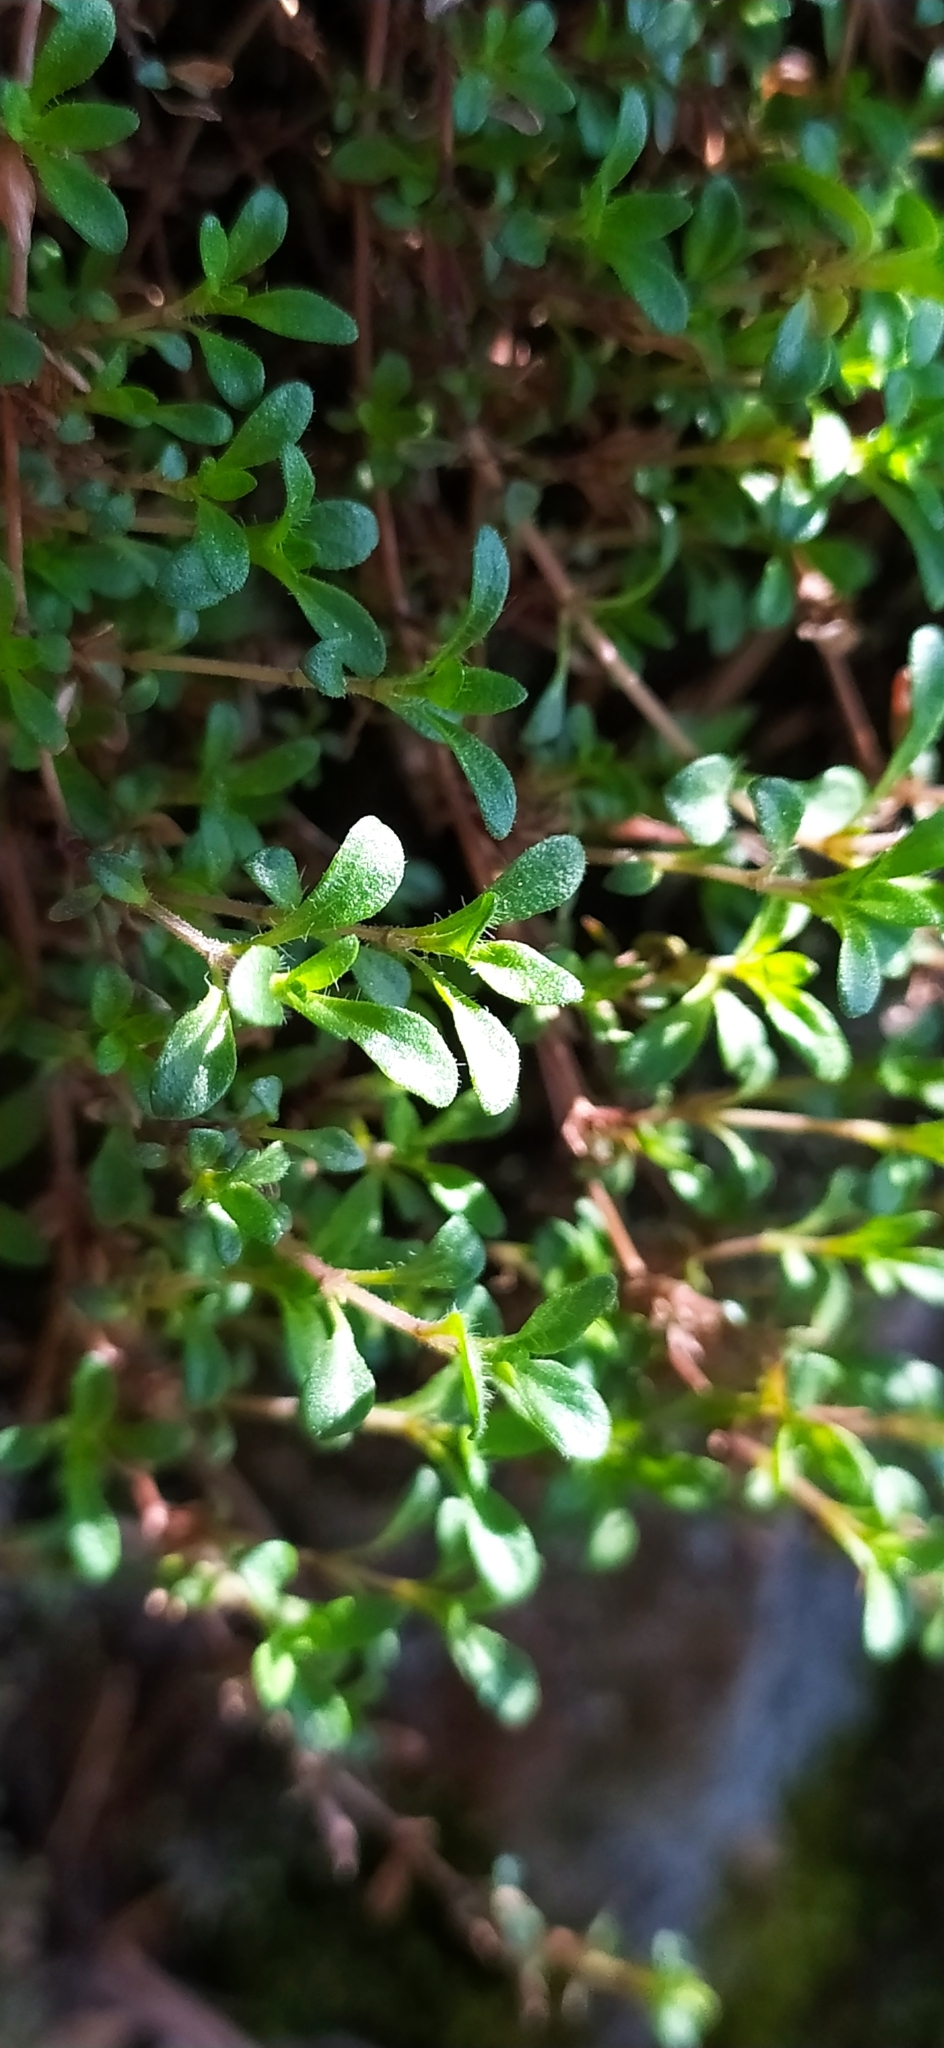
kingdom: Plantae
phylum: Tracheophyta
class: Magnoliopsida
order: Lamiales
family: Lamiaceae
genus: Thymus
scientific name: Thymus glabricaulis
